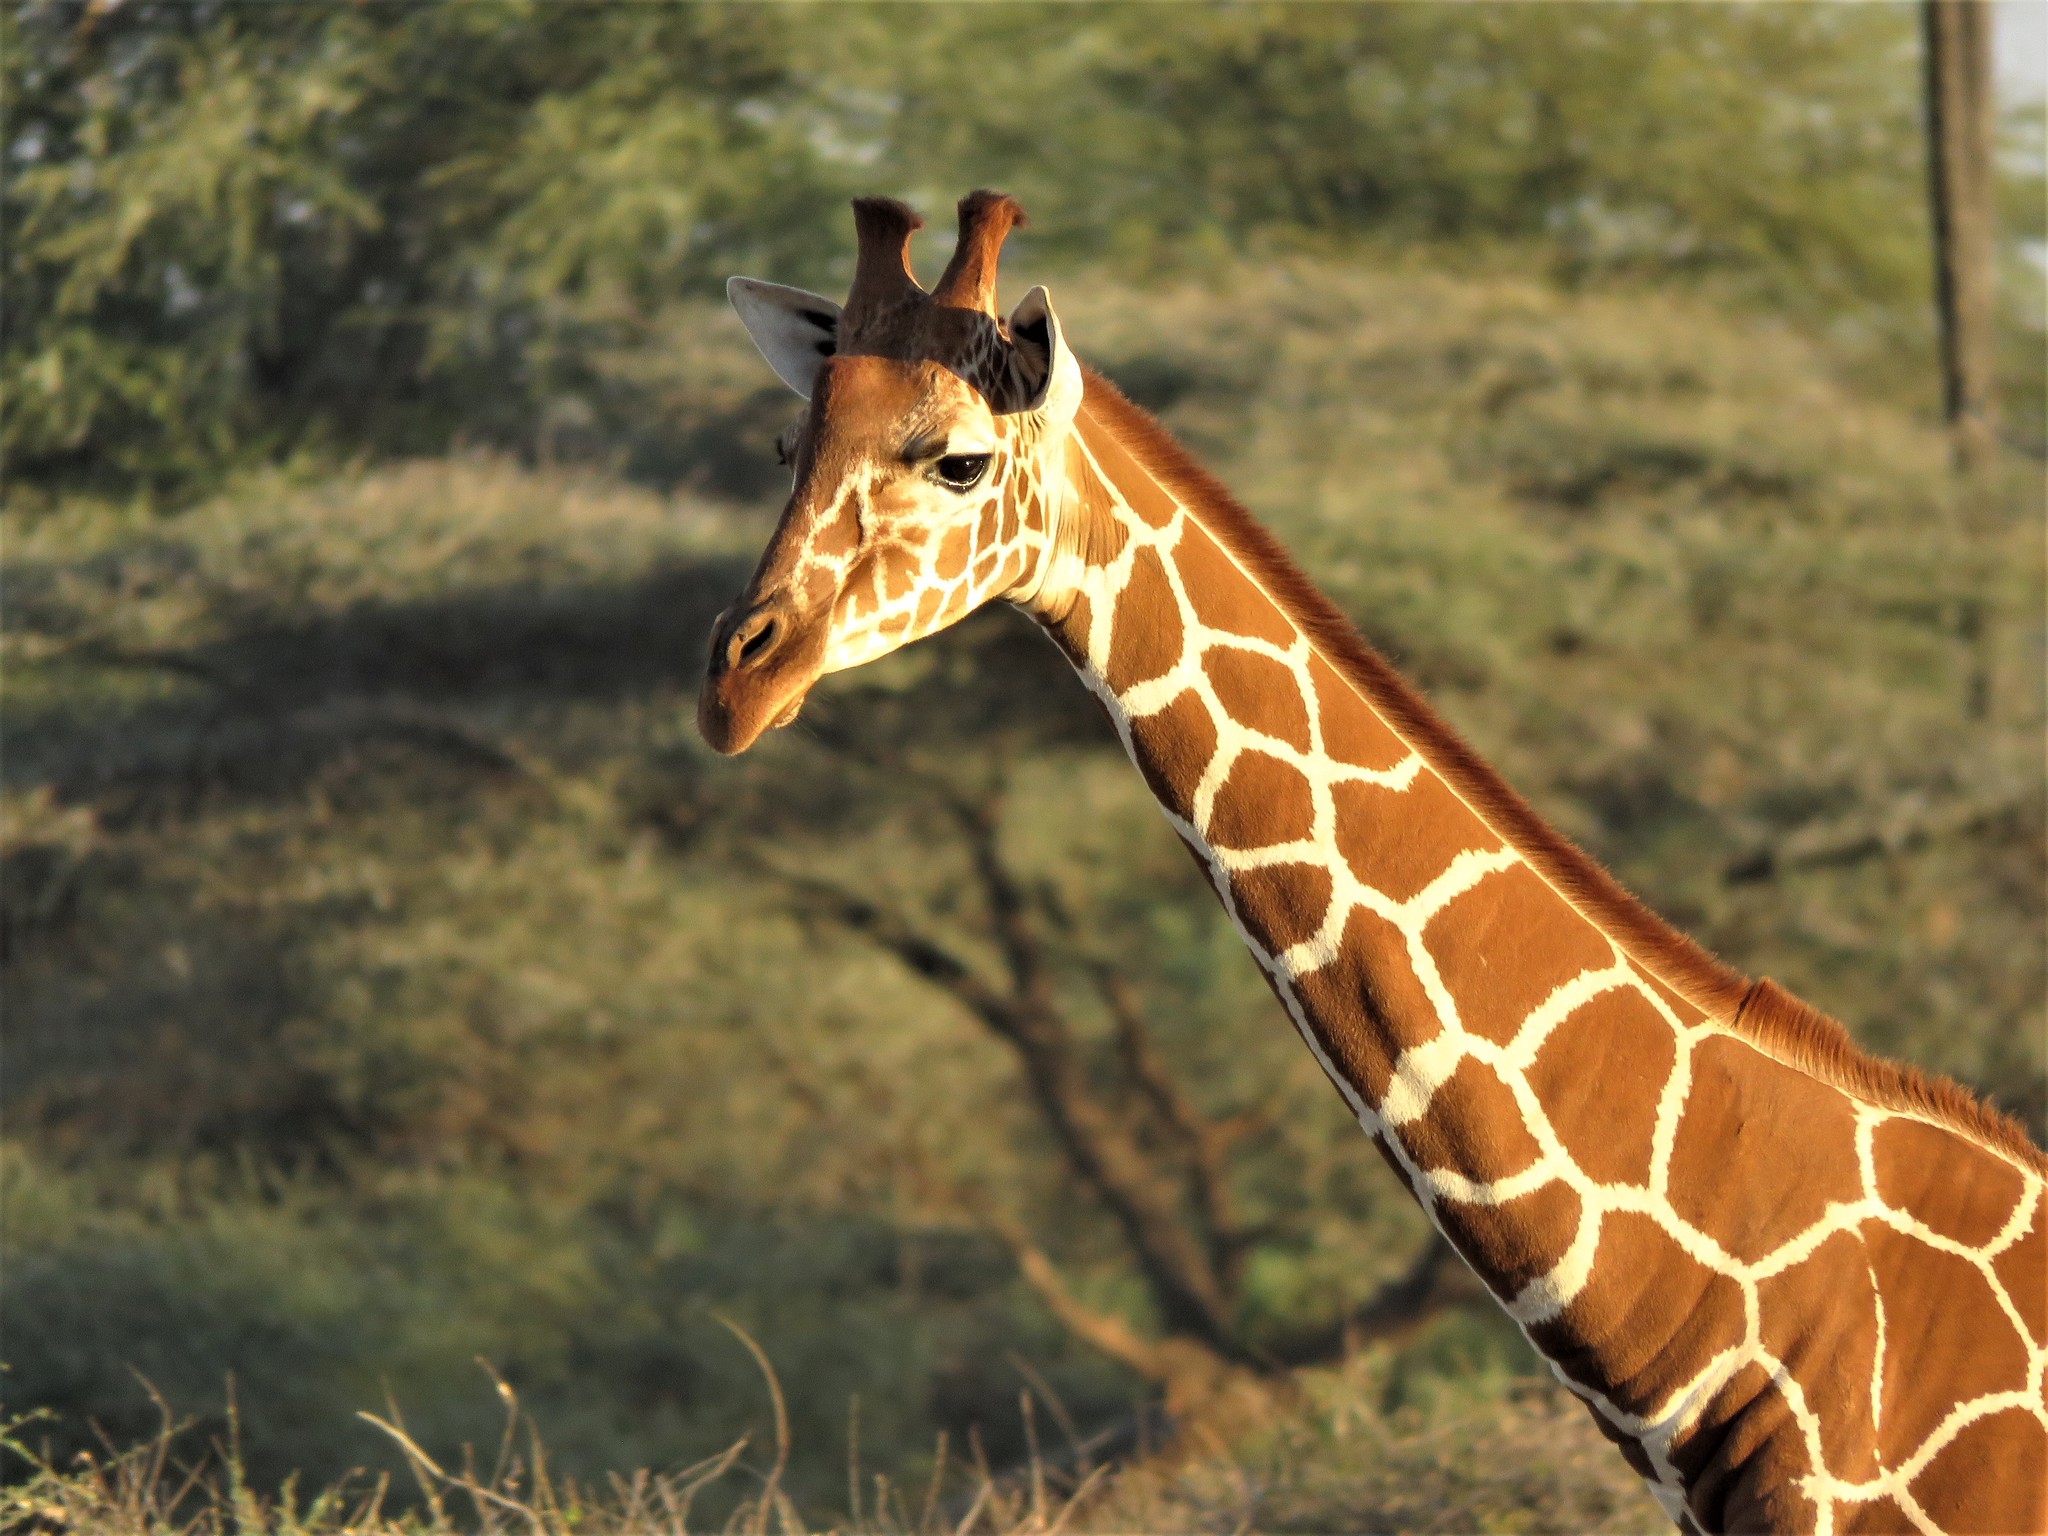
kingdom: Animalia
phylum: Chordata
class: Mammalia
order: Artiodactyla
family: Giraffidae
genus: Giraffa
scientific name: Giraffa reticulata
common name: Reticulated giraffe
